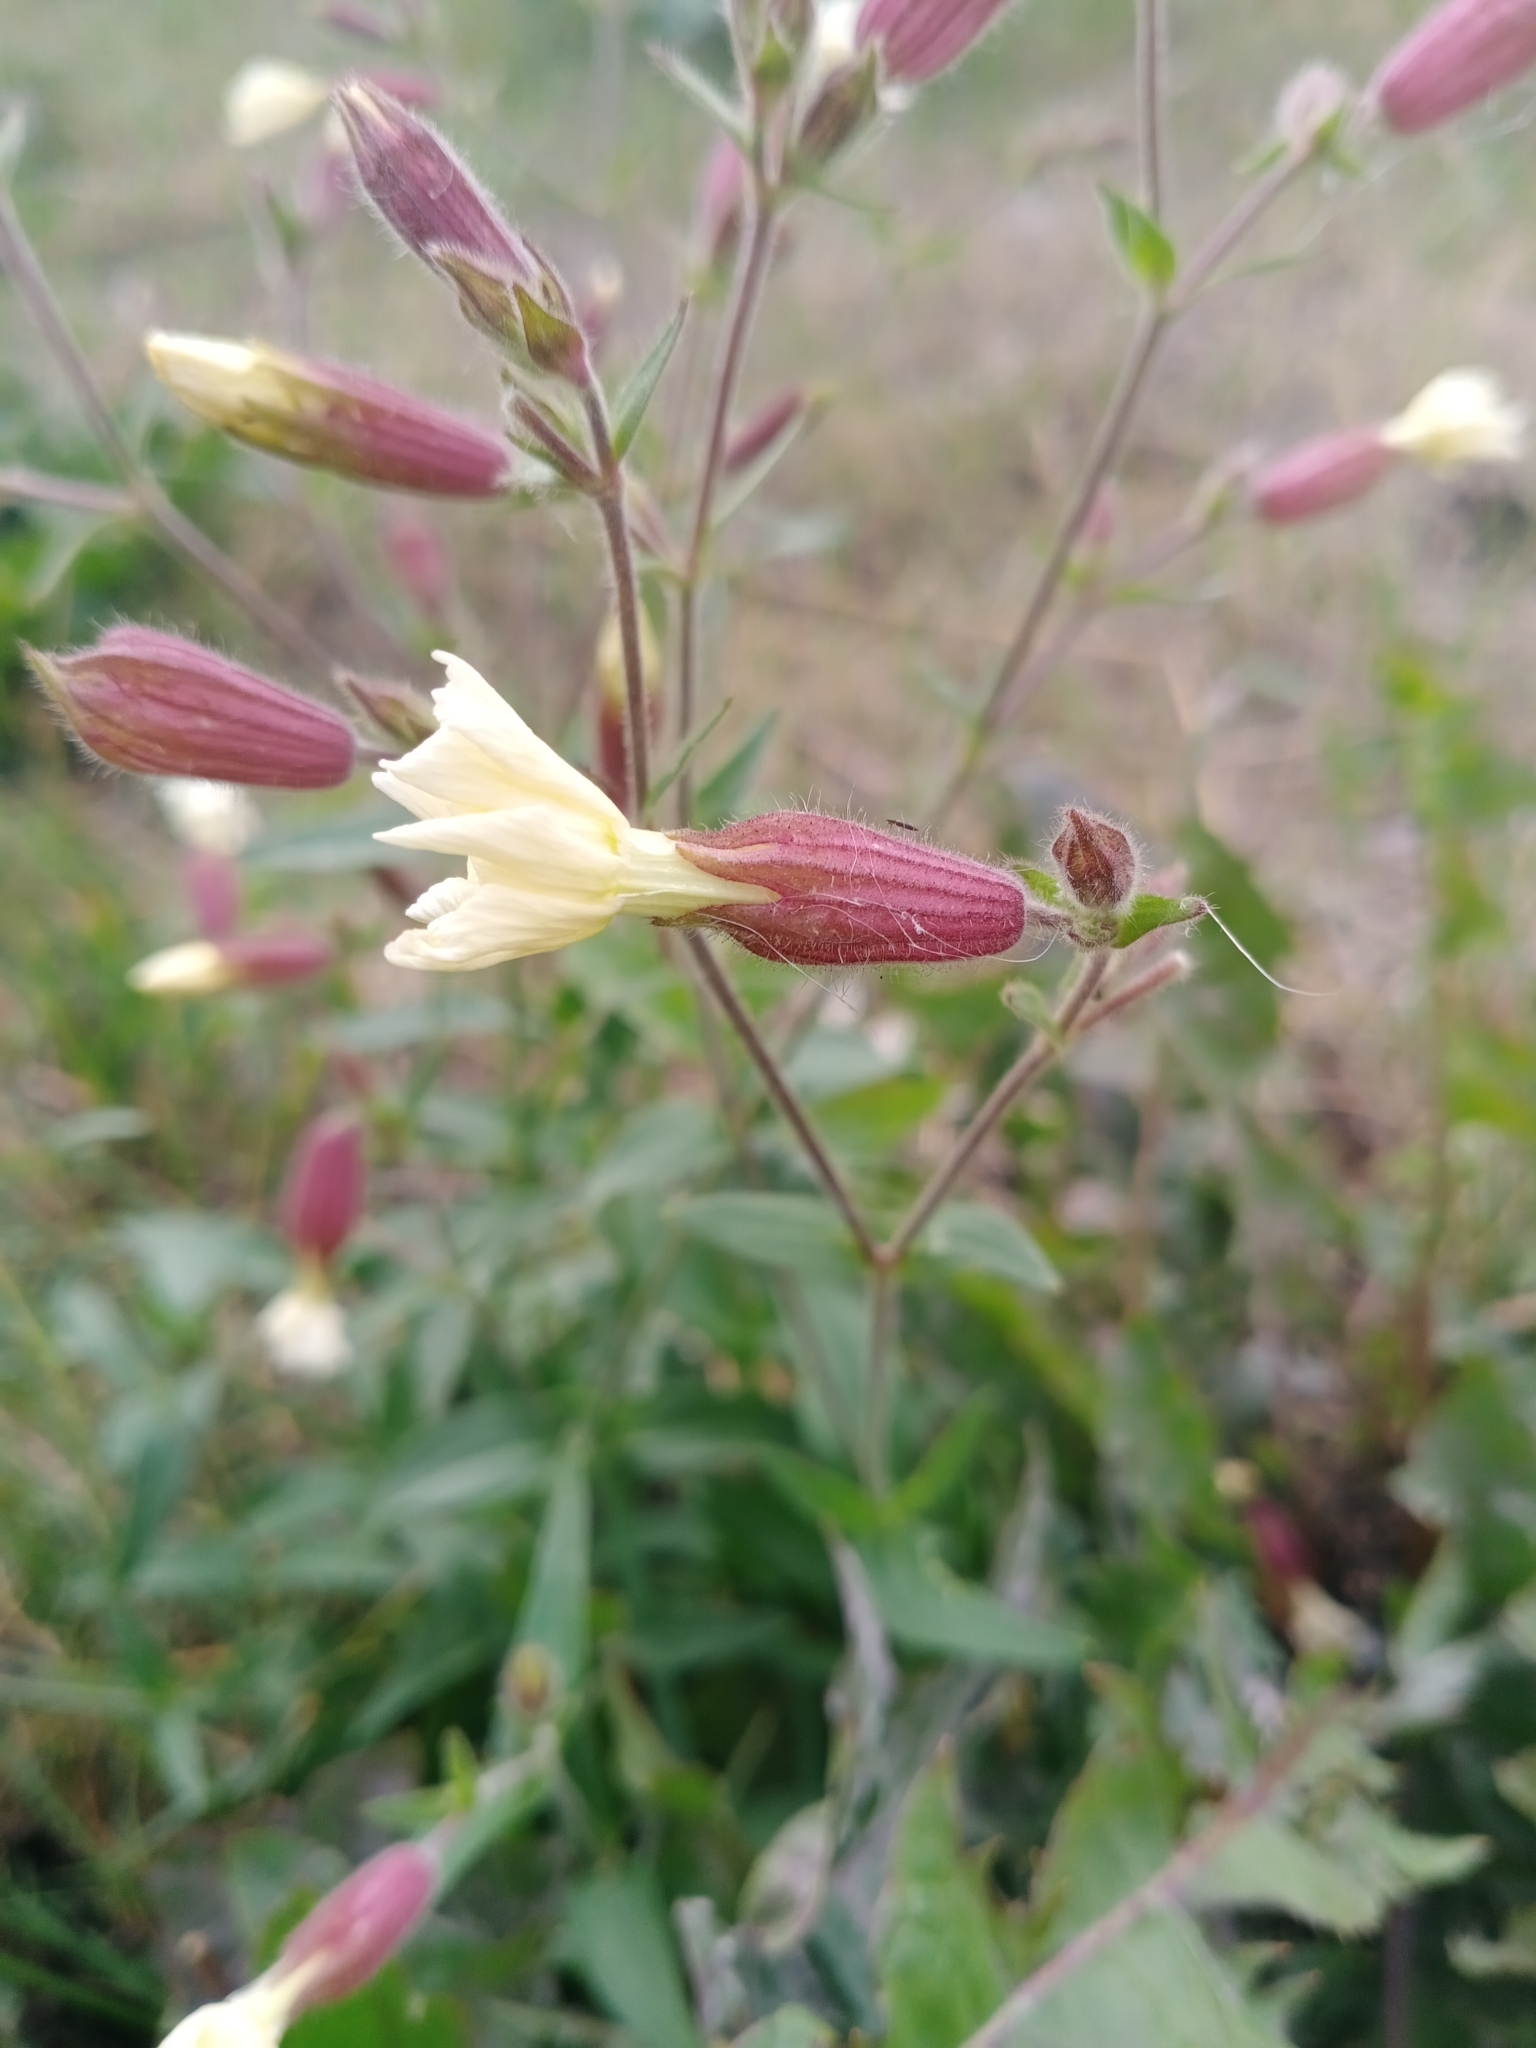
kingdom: Plantae
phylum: Tracheophyta
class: Magnoliopsida
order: Caryophyllales
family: Caryophyllaceae
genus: Silene
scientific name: Silene latifolia
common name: White campion
